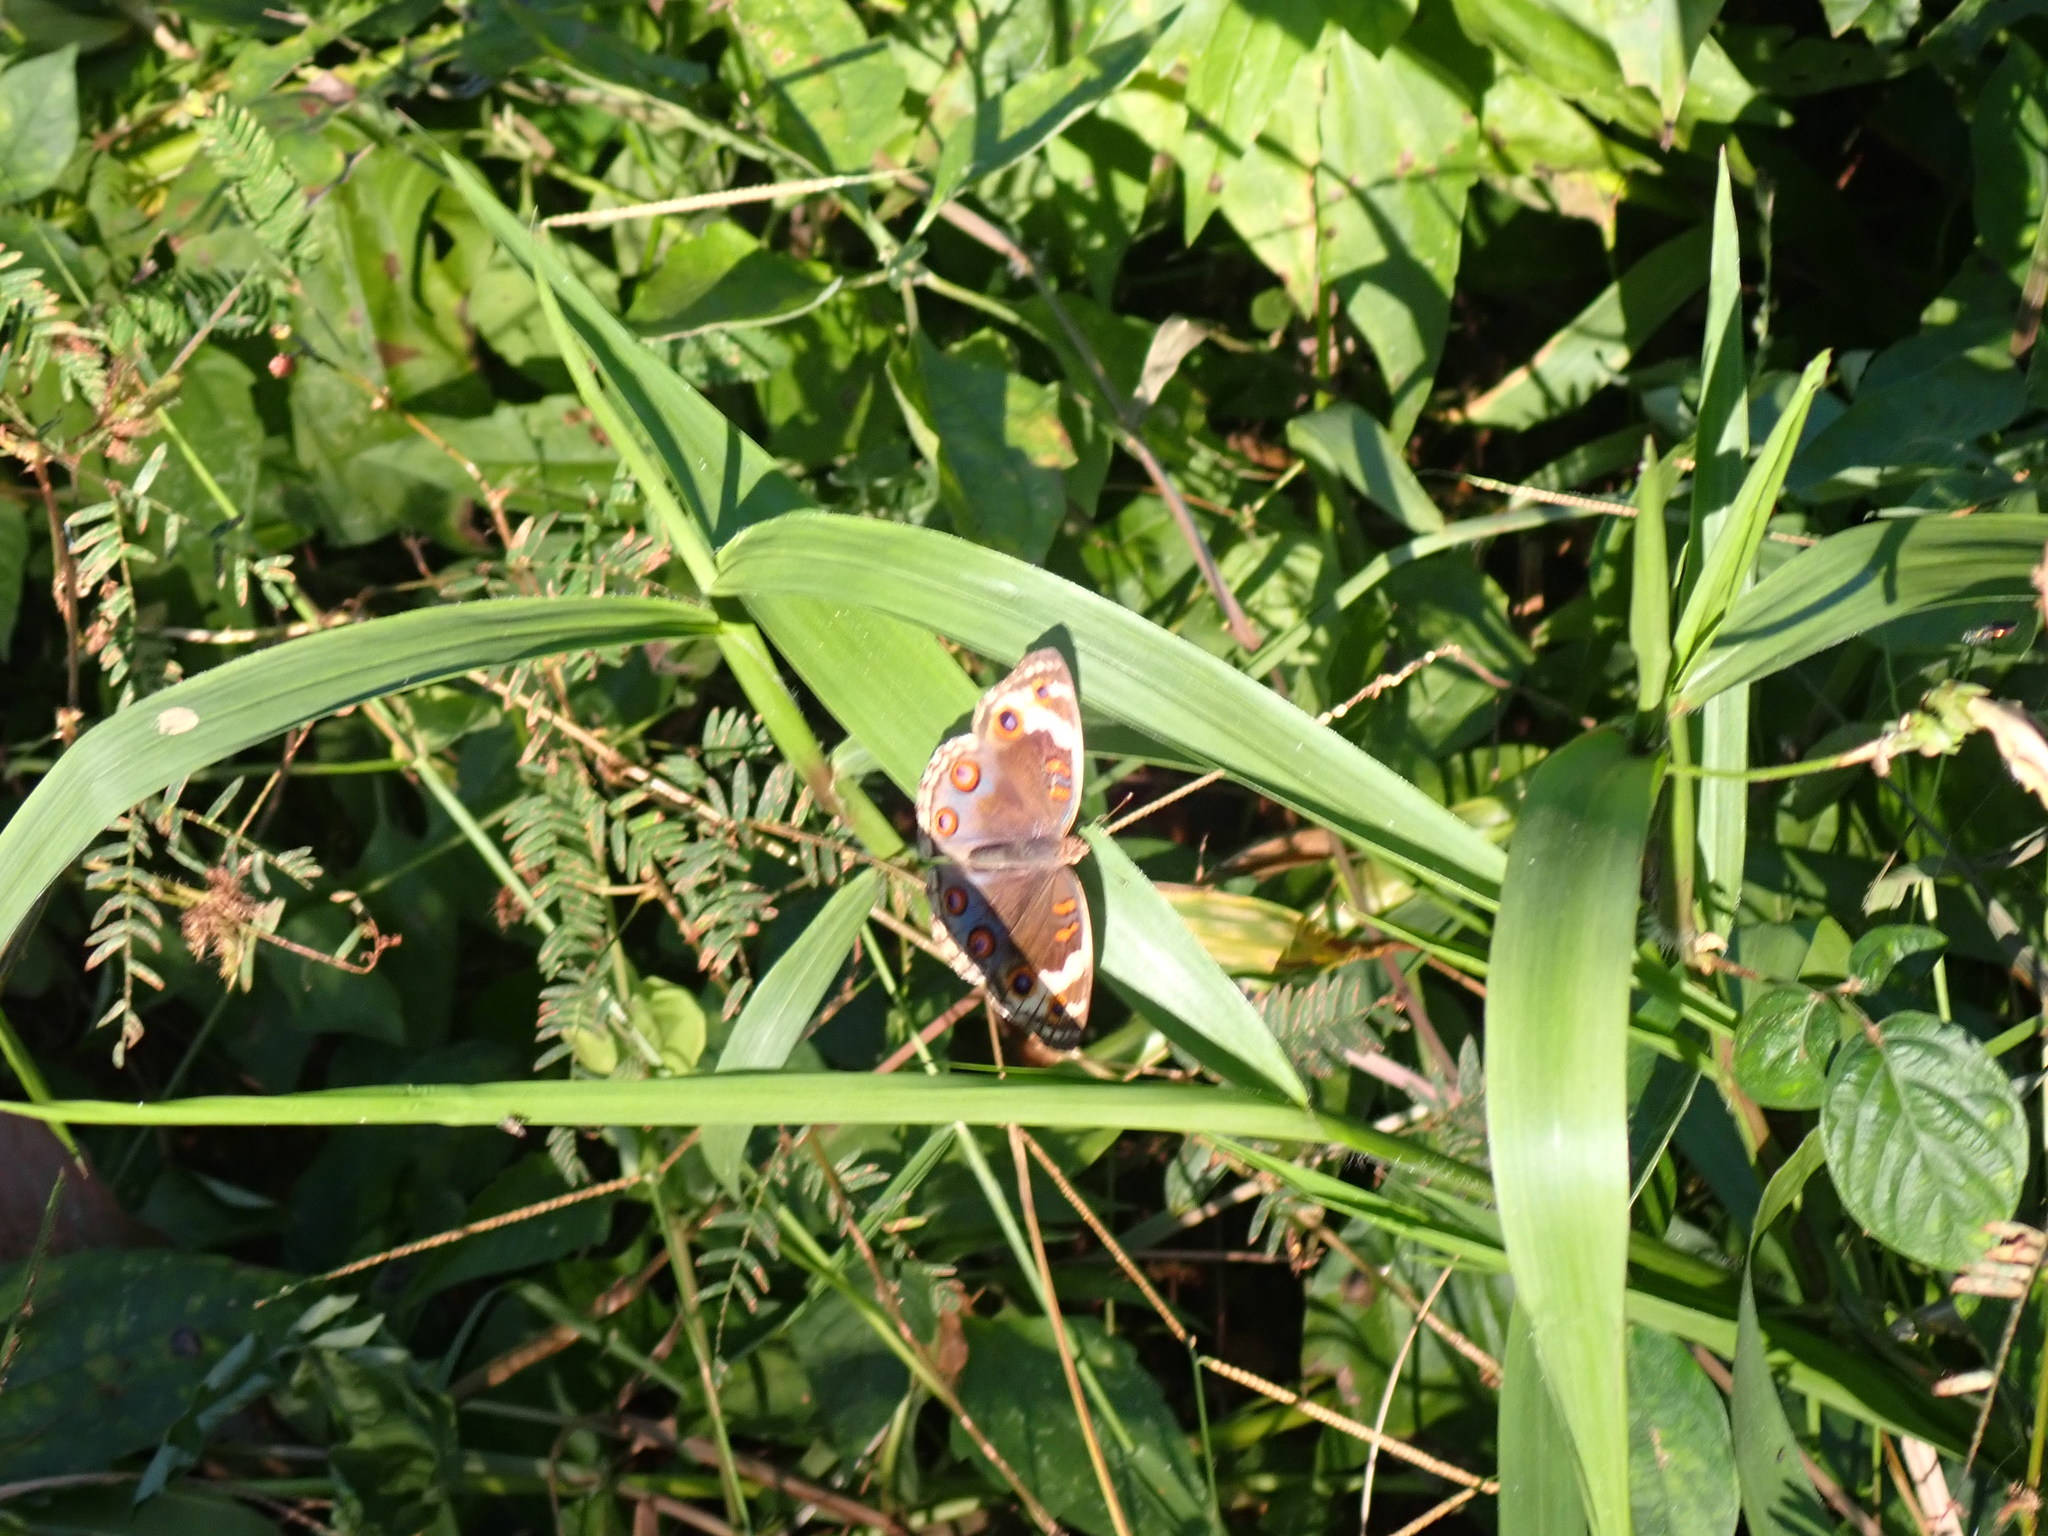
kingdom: Animalia
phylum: Arthropoda
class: Insecta
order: Lepidoptera
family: Nymphalidae
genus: Junonia
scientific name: Junonia orithya
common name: Blue pansy
